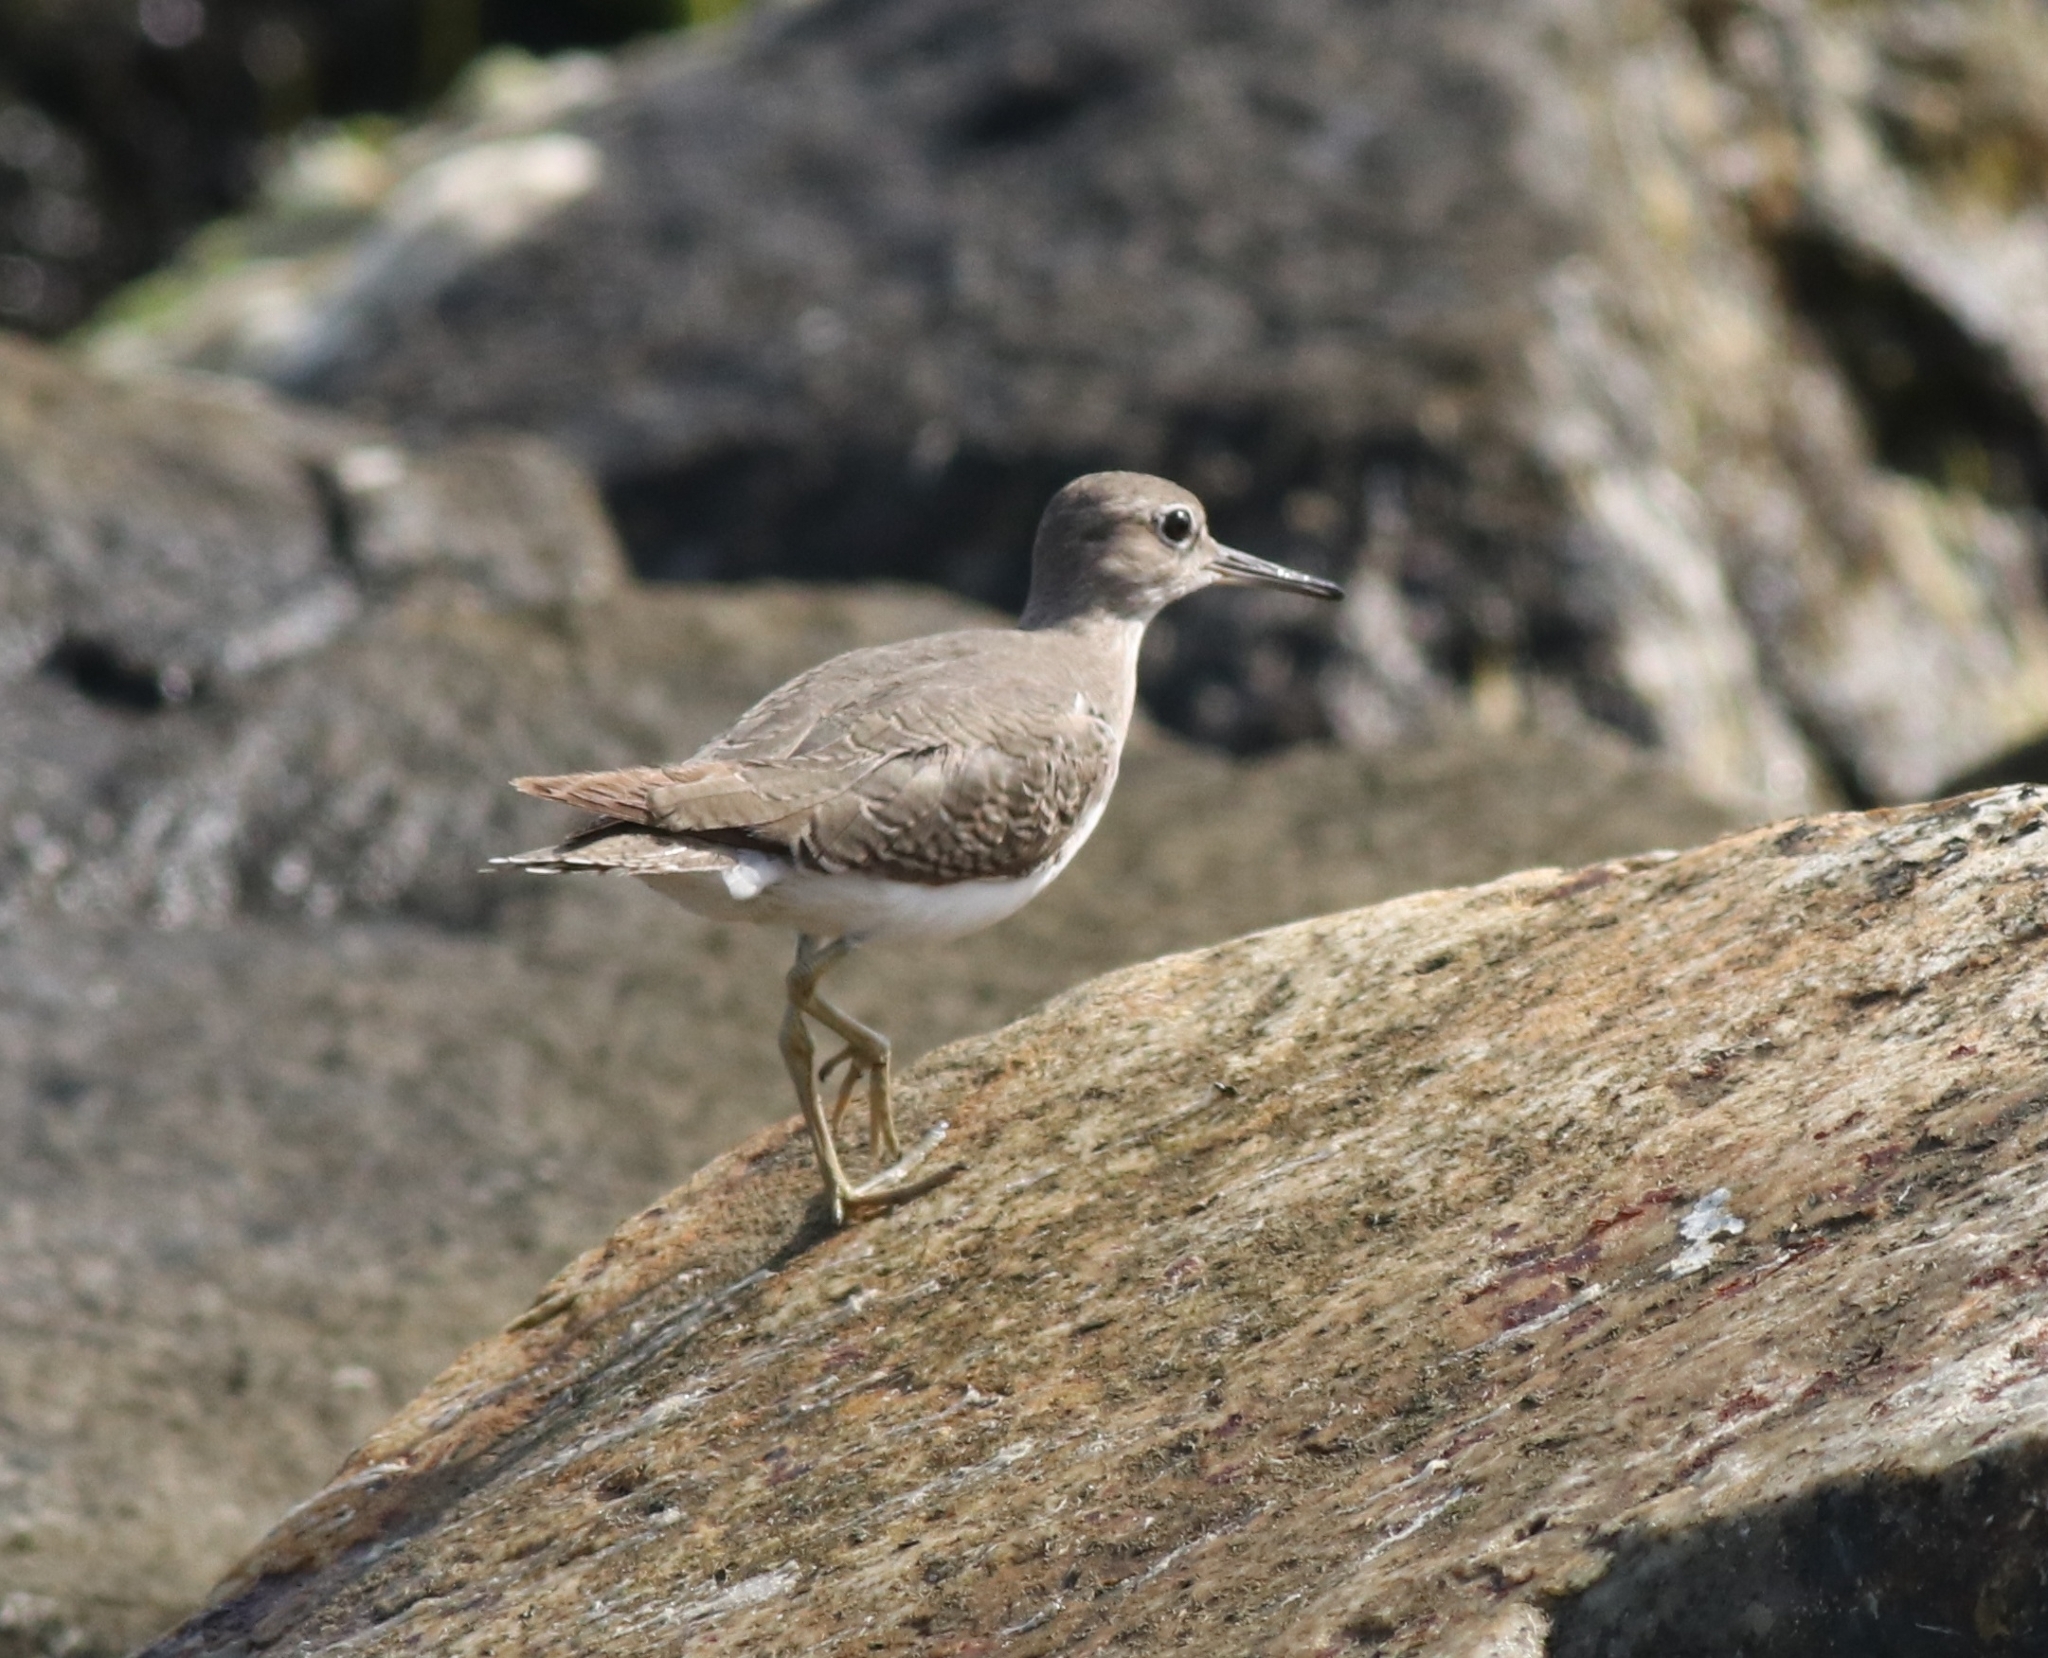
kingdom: Animalia
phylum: Chordata
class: Aves
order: Charadriiformes
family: Scolopacidae
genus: Actitis
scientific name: Actitis hypoleucos
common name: Common sandpiper
